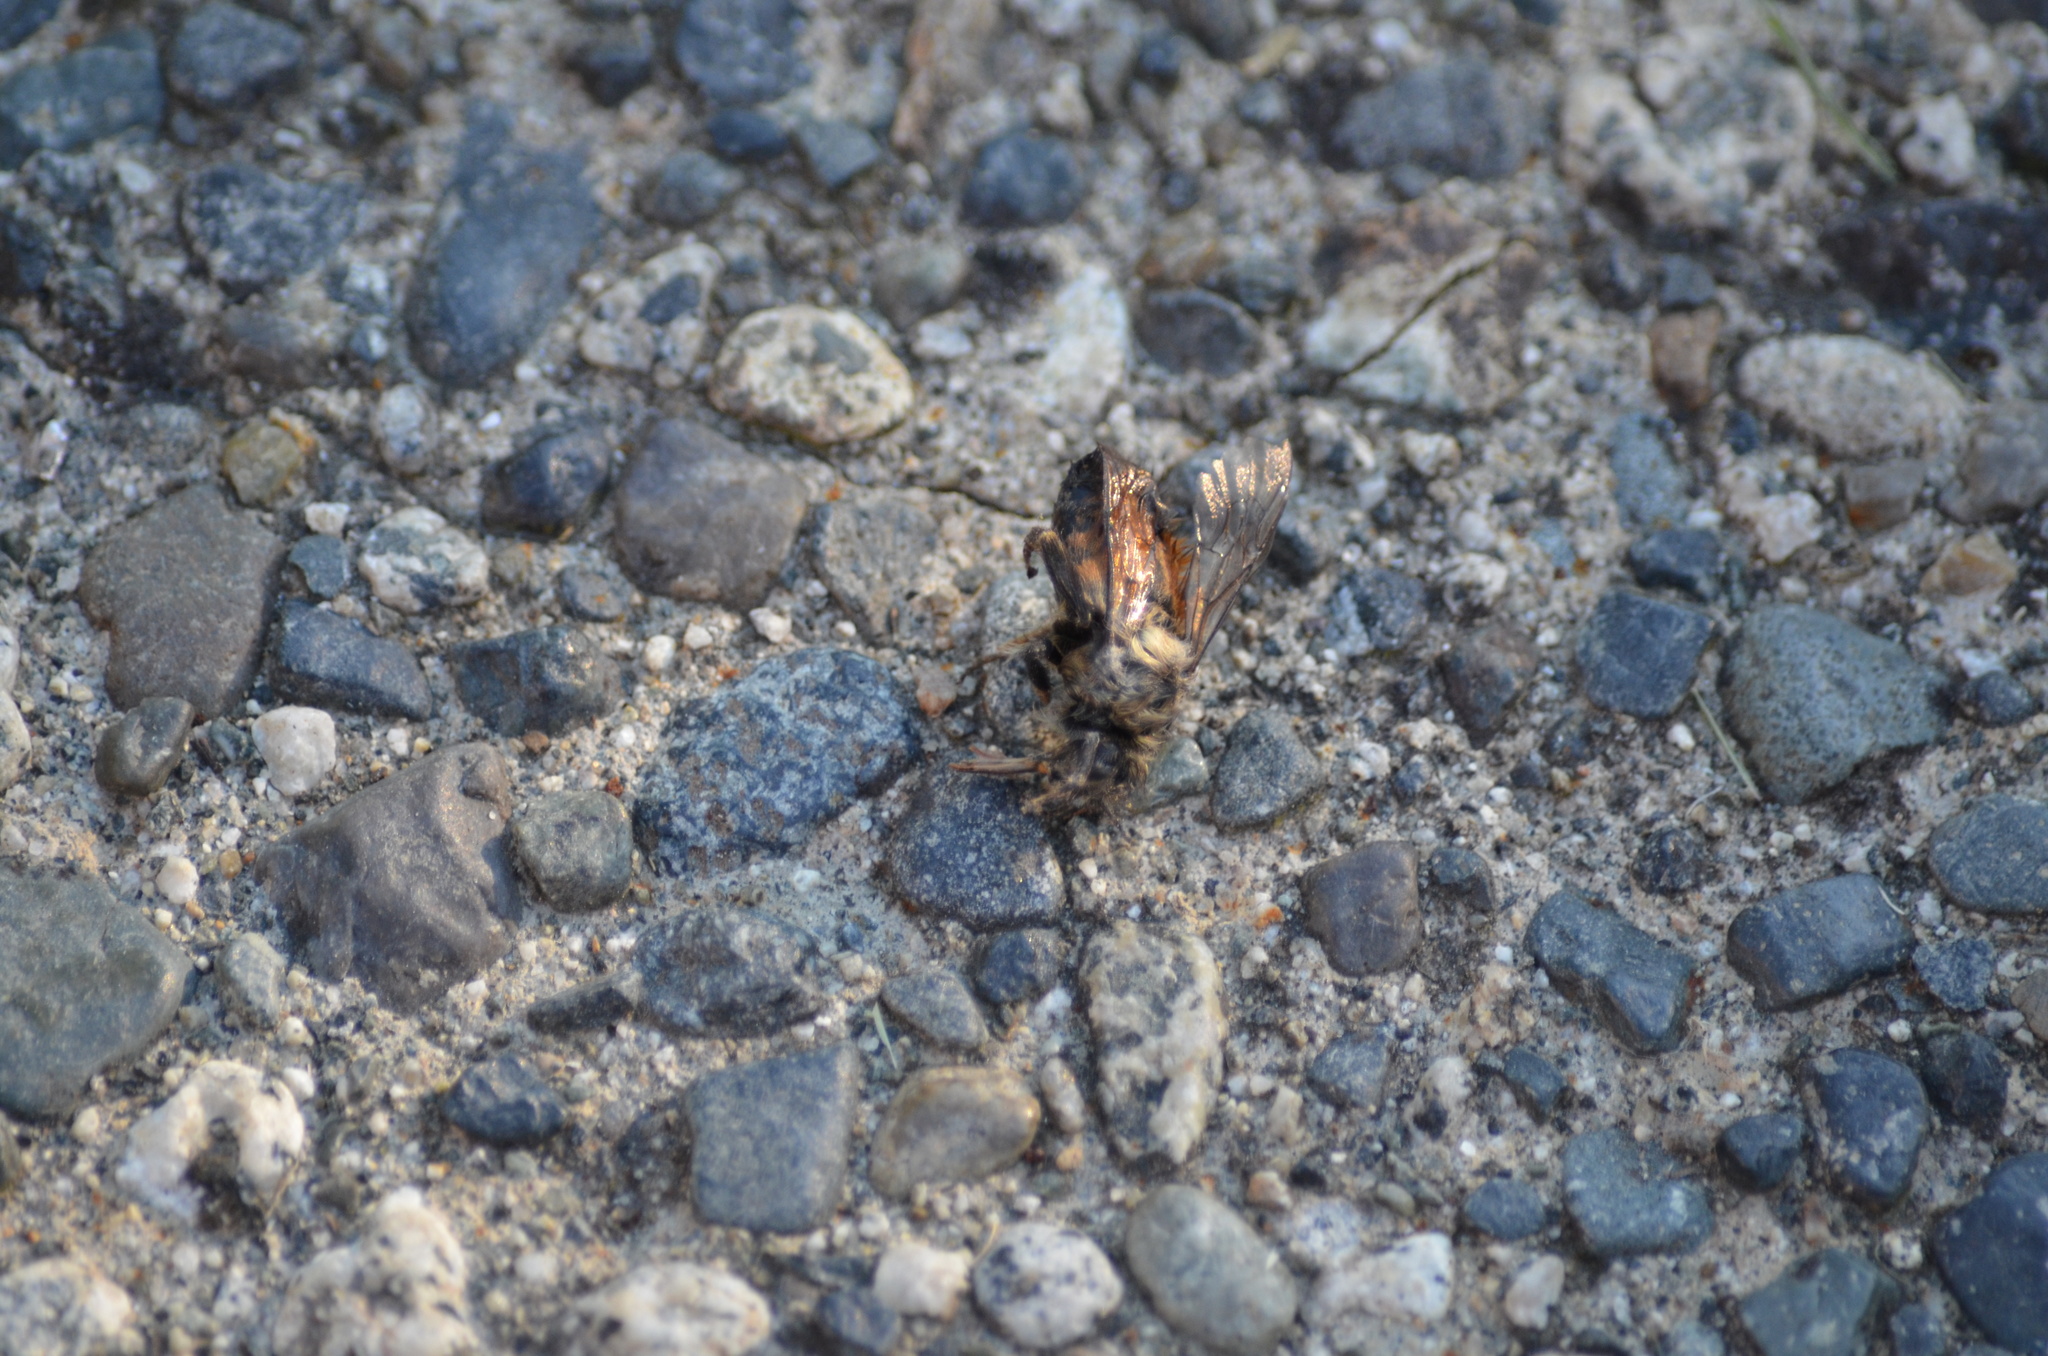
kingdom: Animalia
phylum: Arthropoda
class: Insecta
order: Hymenoptera
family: Apidae
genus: Bombus
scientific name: Bombus melanopygus
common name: Black tail bumble bee
